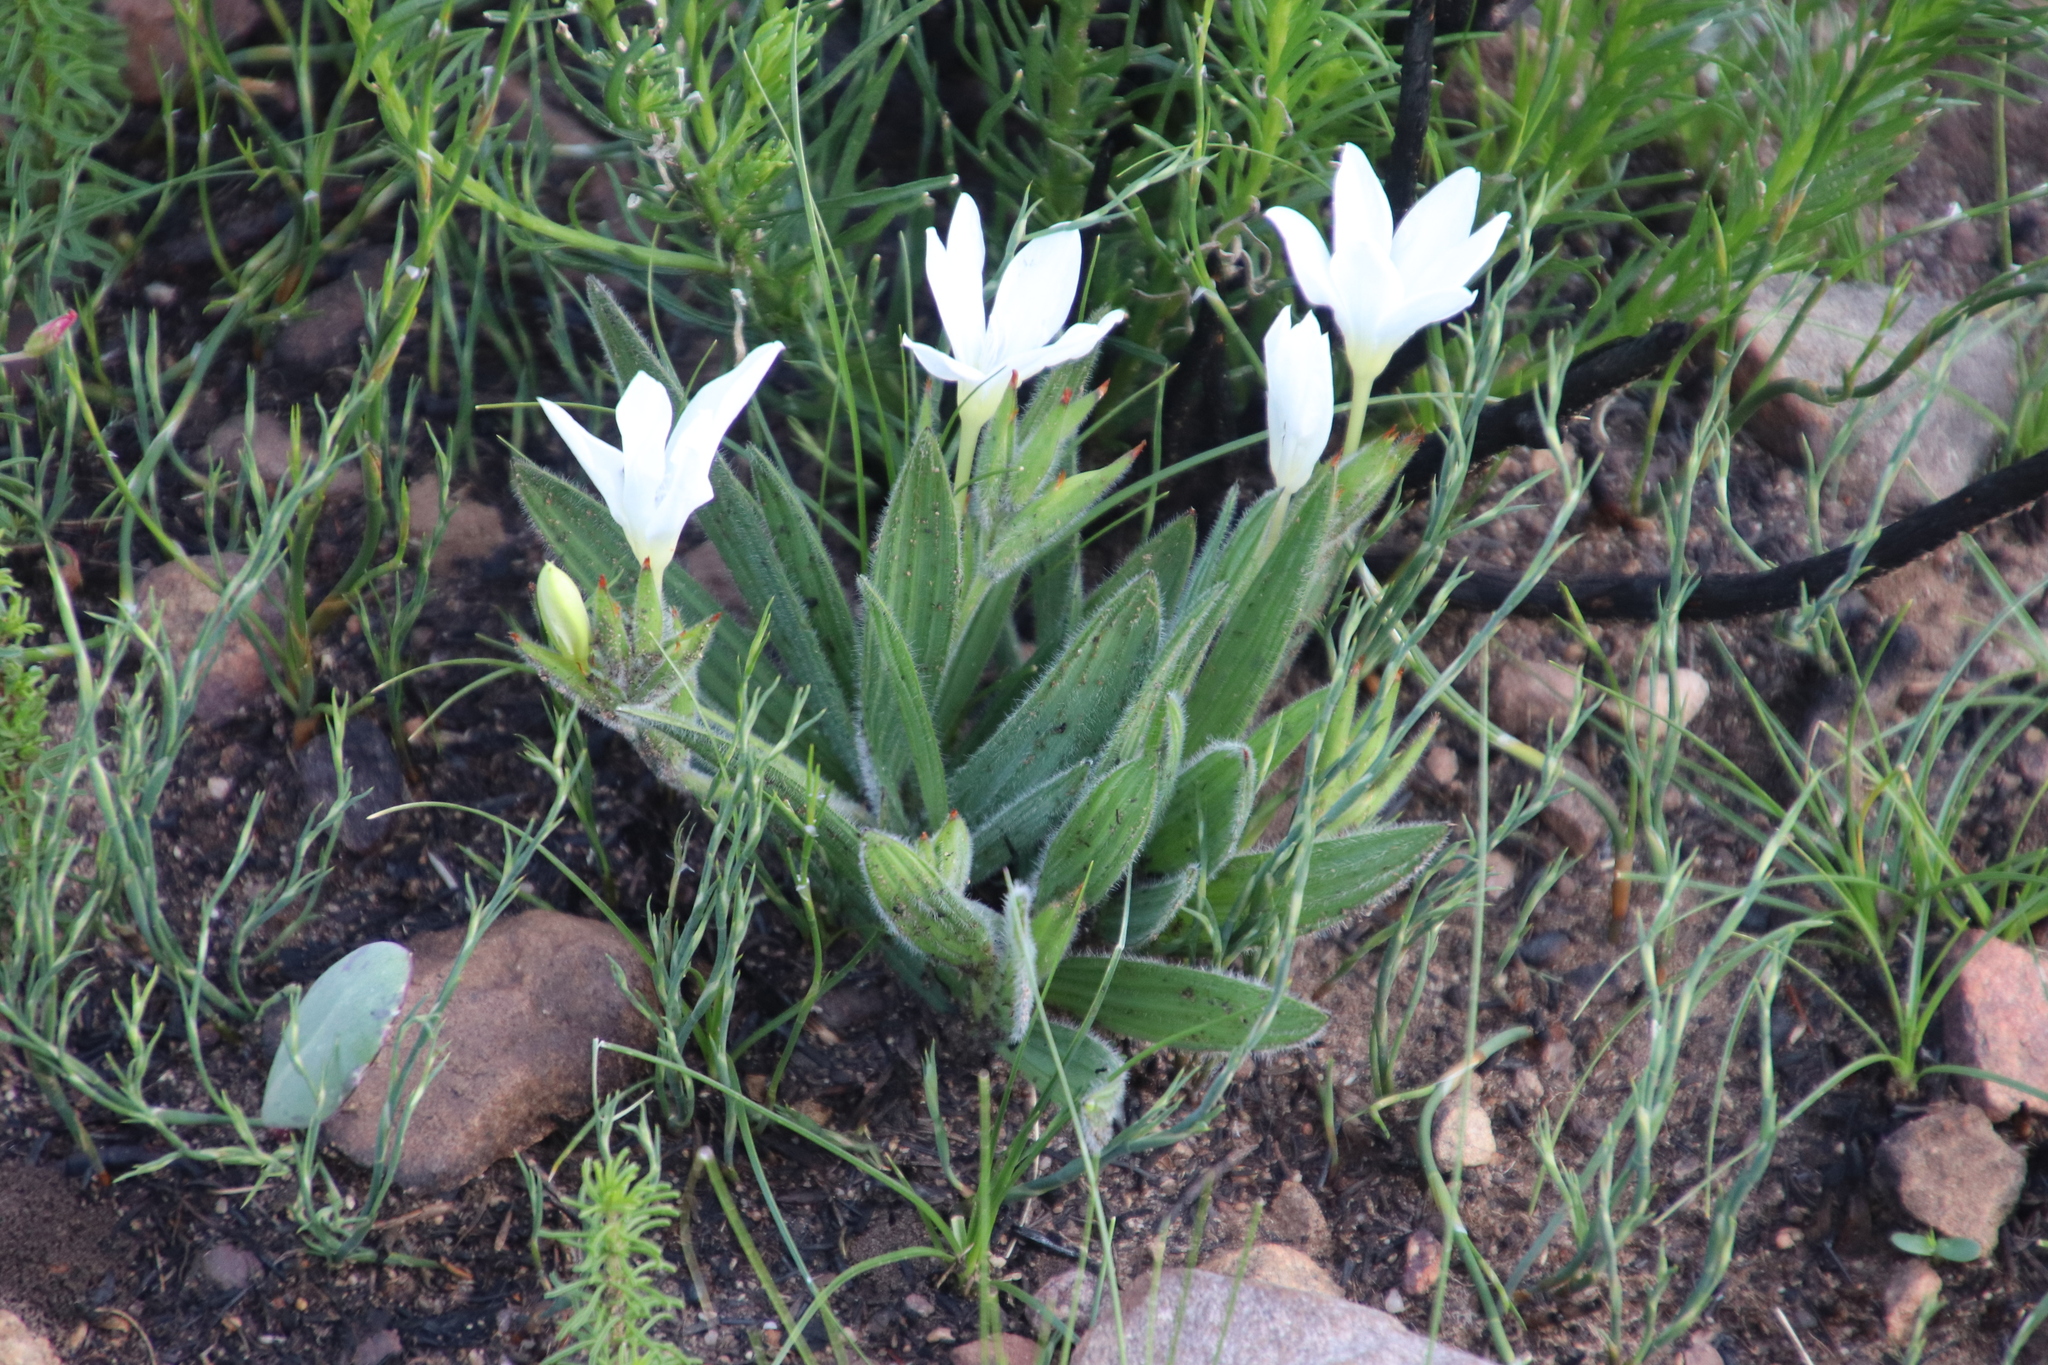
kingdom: Plantae
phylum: Tracheophyta
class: Liliopsida
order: Asparagales
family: Iridaceae
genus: Babiana
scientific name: Babiana villosula
